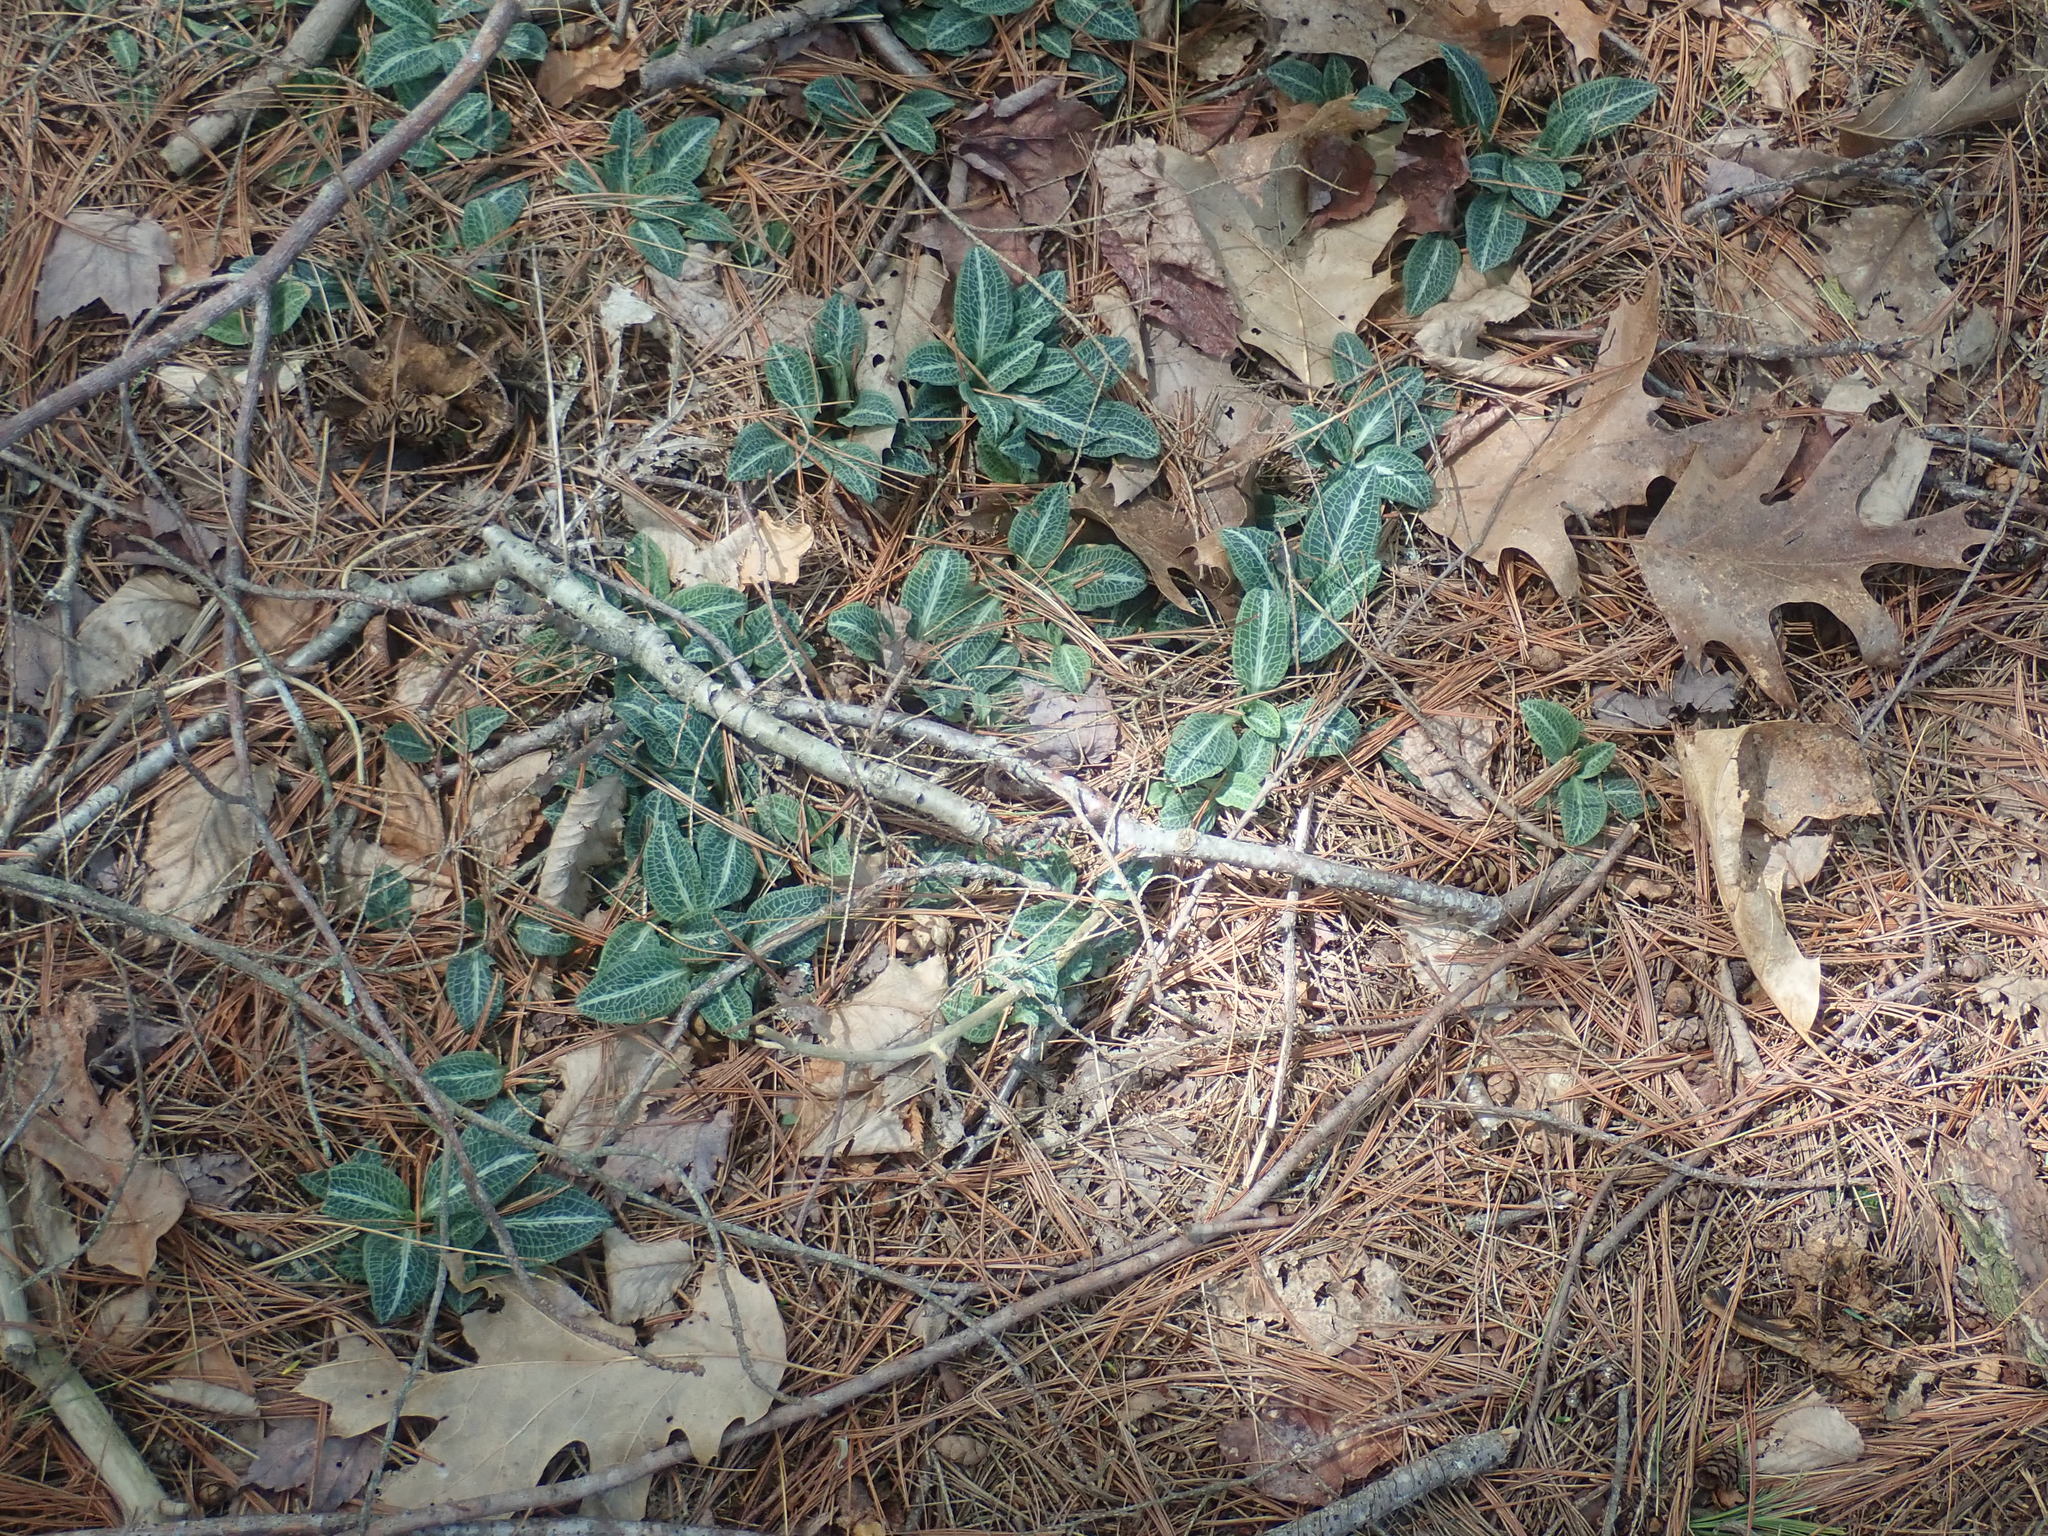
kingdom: Plantae
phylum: Tracheophyta
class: Liliopsida
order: Asparagales
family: Orchidaceae
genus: Goodyera
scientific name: Goodyera pubescens
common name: Downy rattlesnake-plantain
